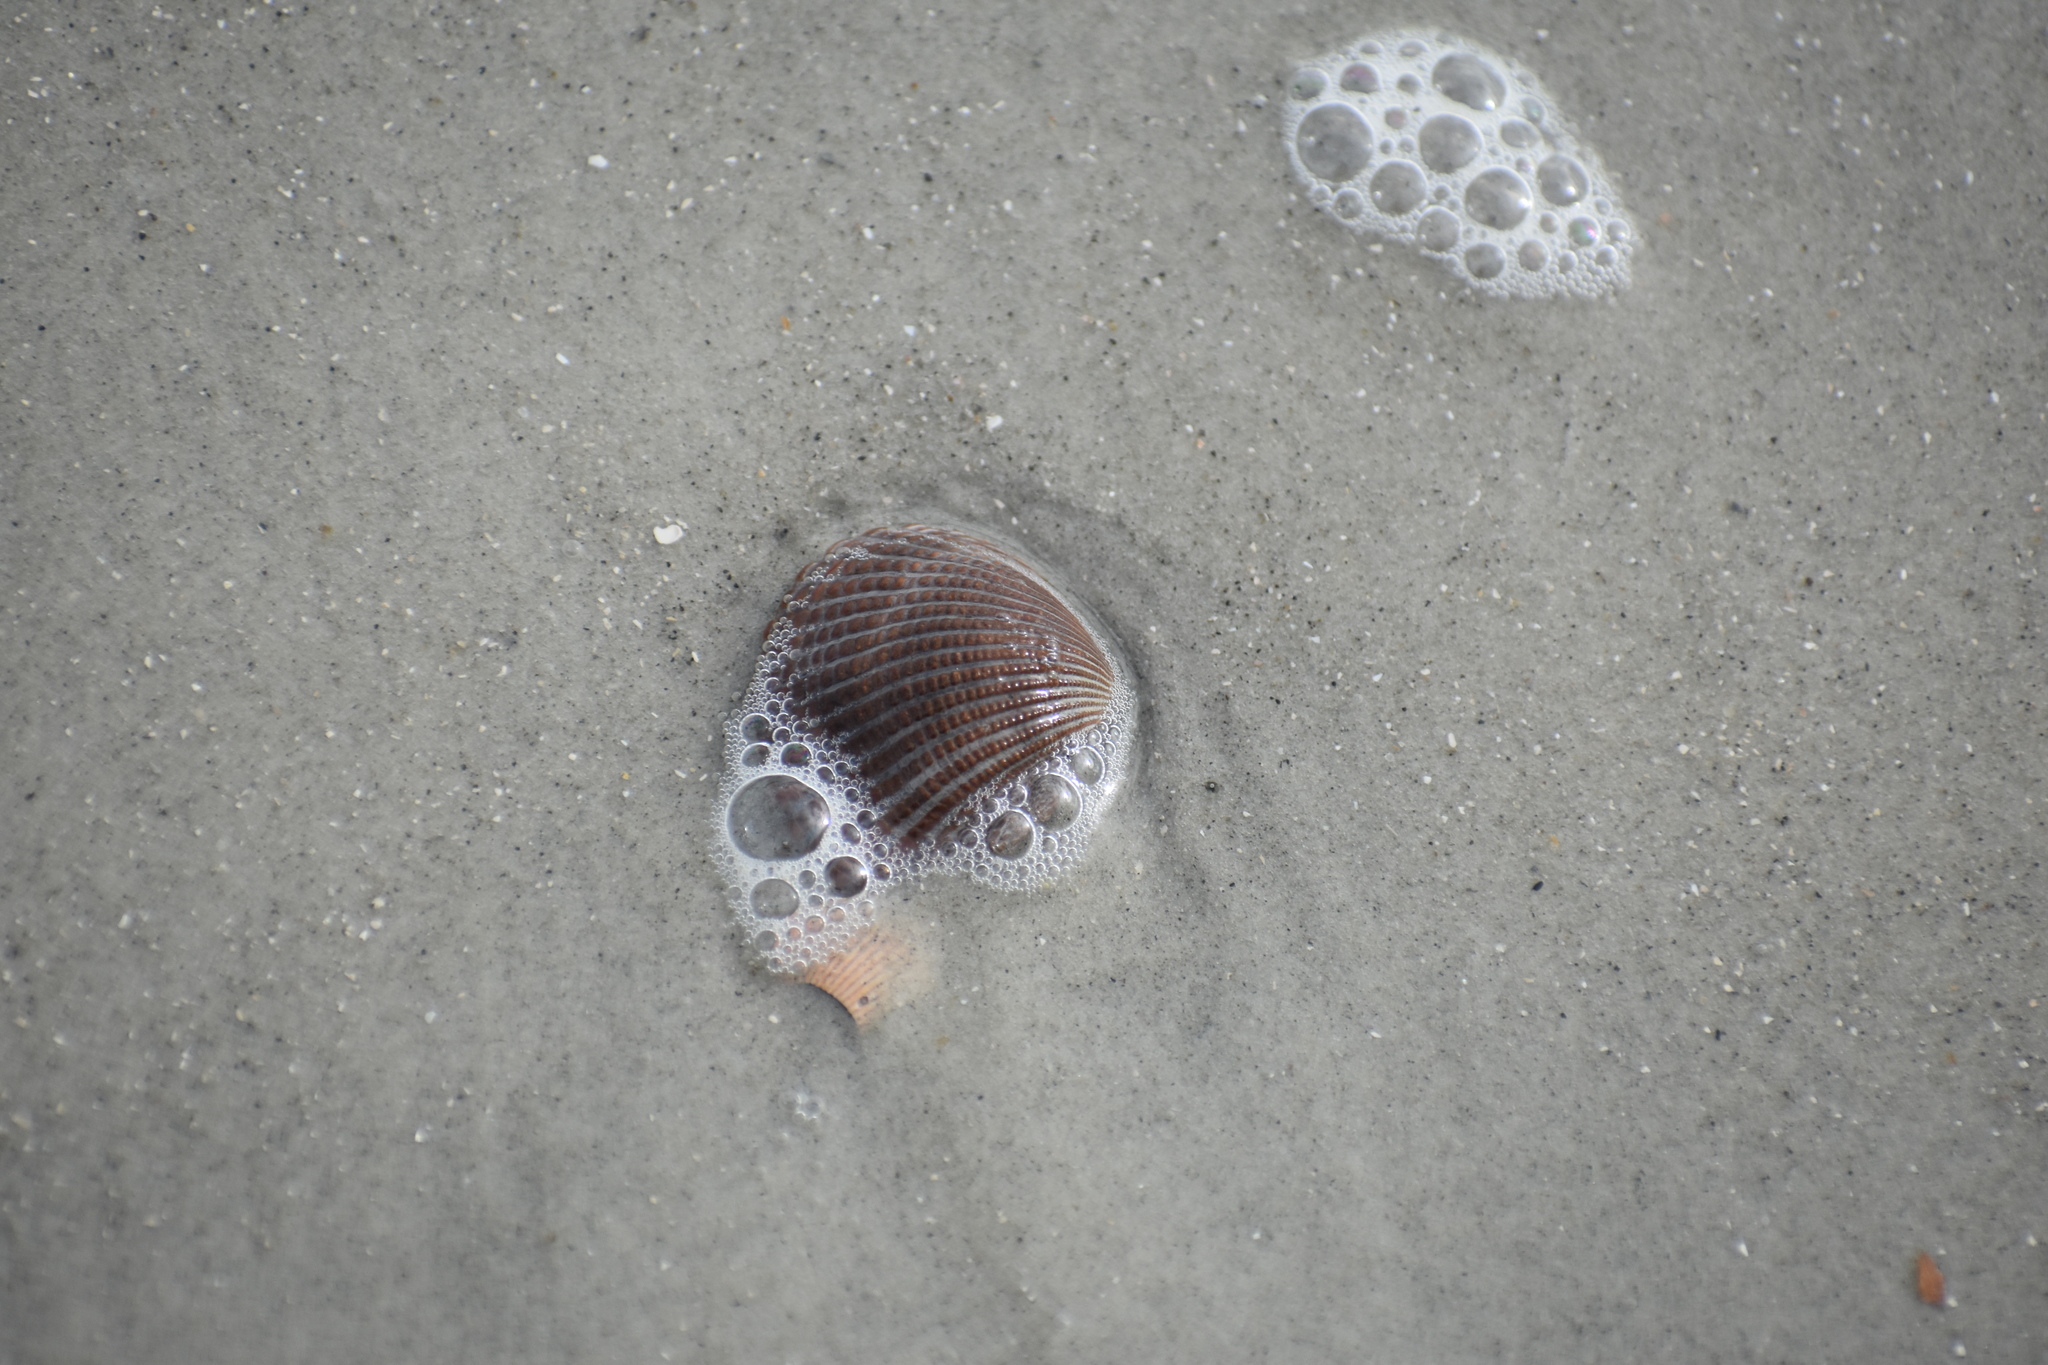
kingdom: Animalia
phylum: Mollusca
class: Bivalvia
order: Arcida
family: Arcidae
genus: Anadara
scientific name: Anadara brasiliana
